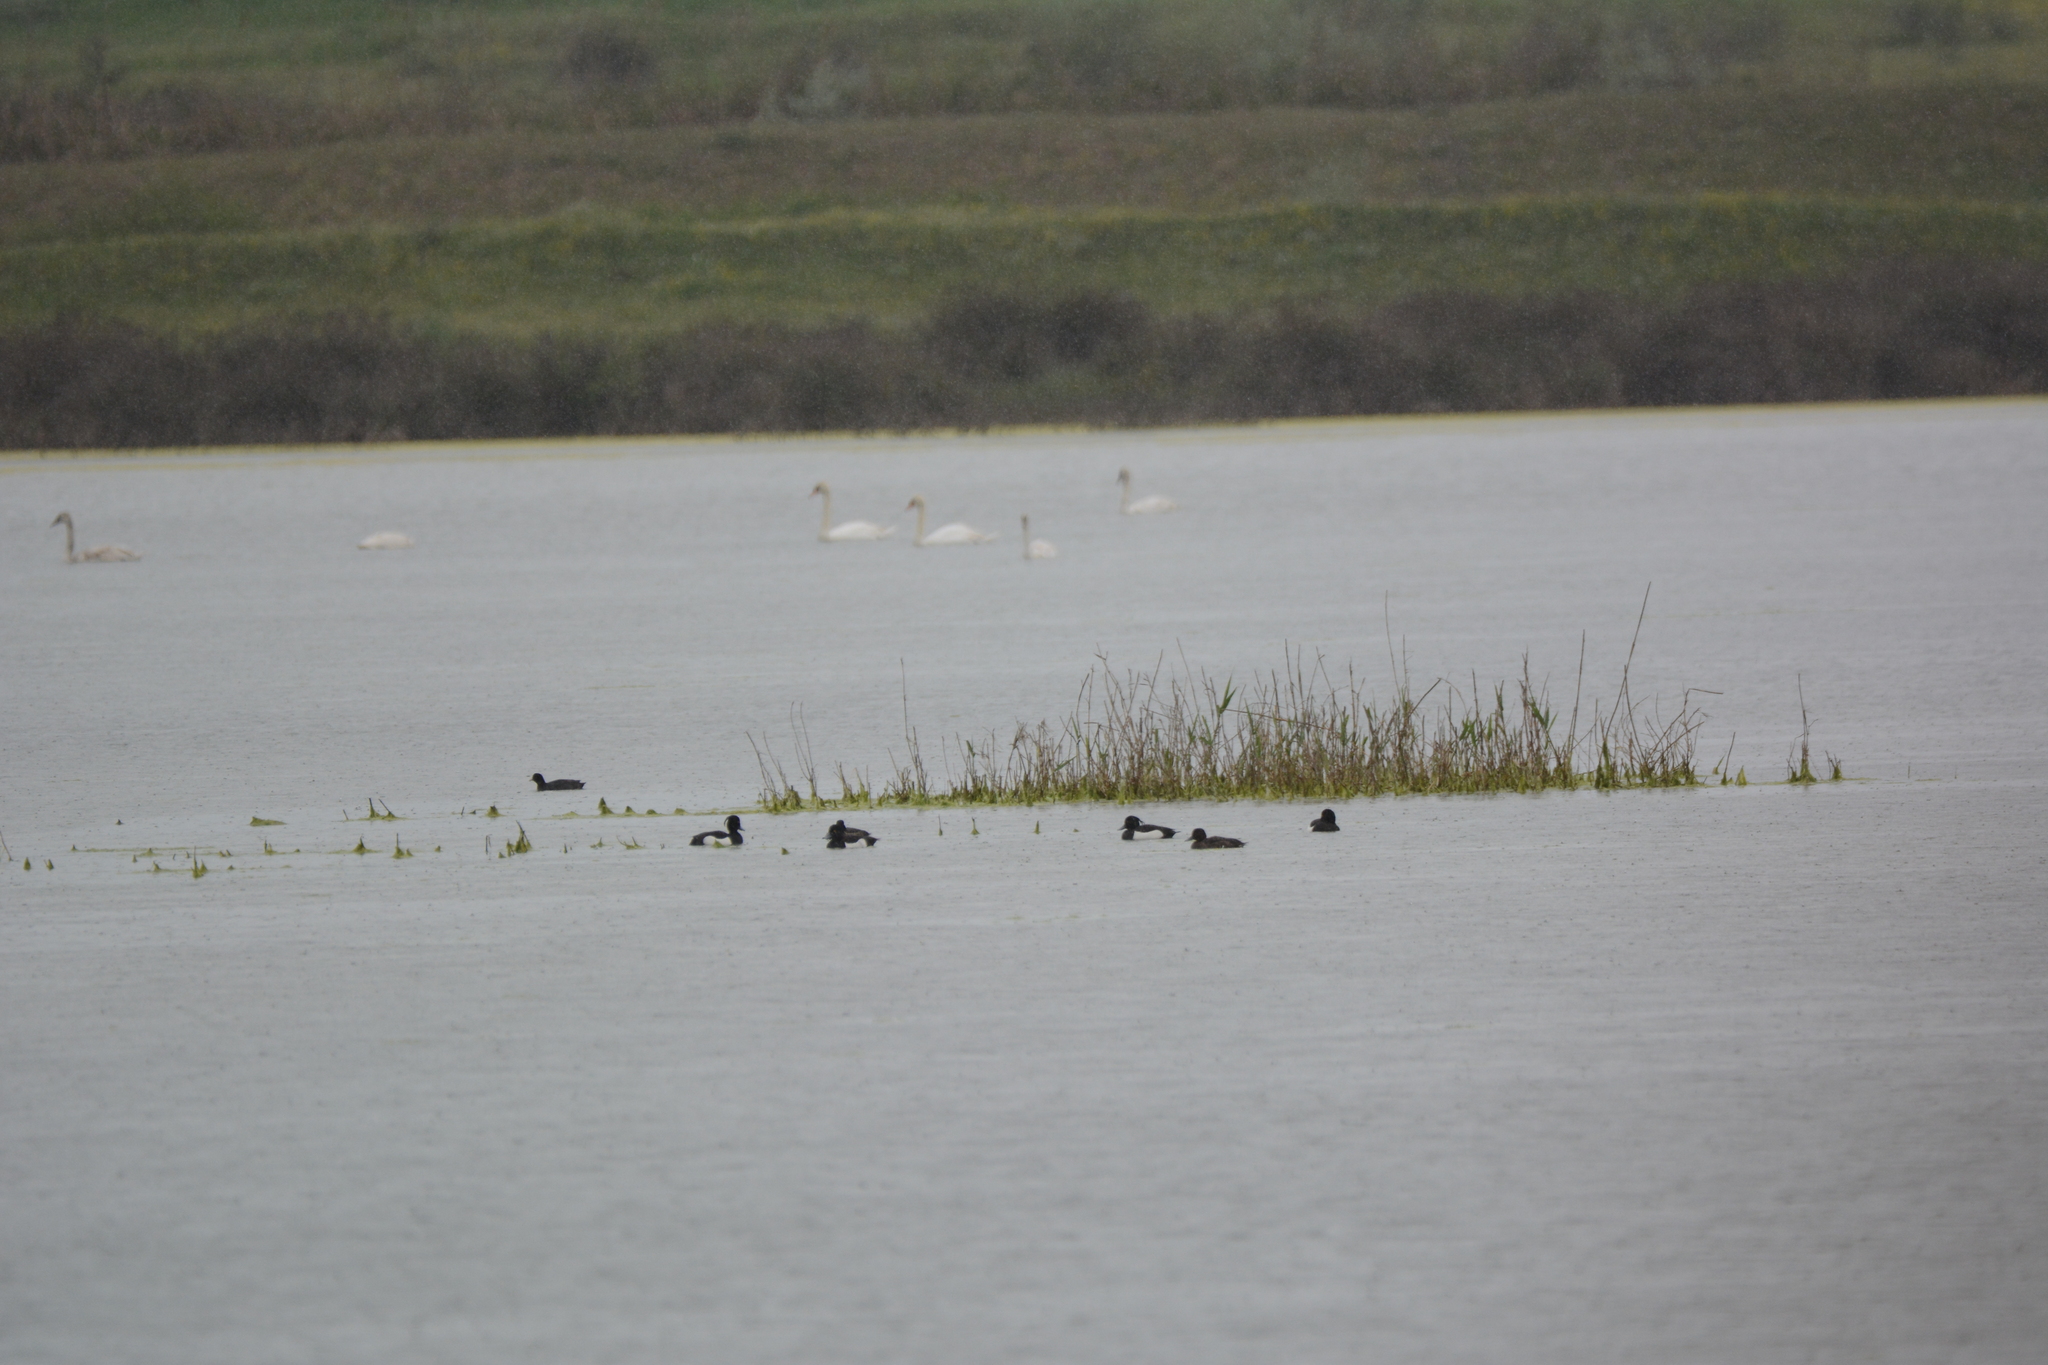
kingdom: Animalia
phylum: Chordata
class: Aves
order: Anseriformes
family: Anatidae
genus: Aythya
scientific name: Aythya fuligula
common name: Tufted duck
